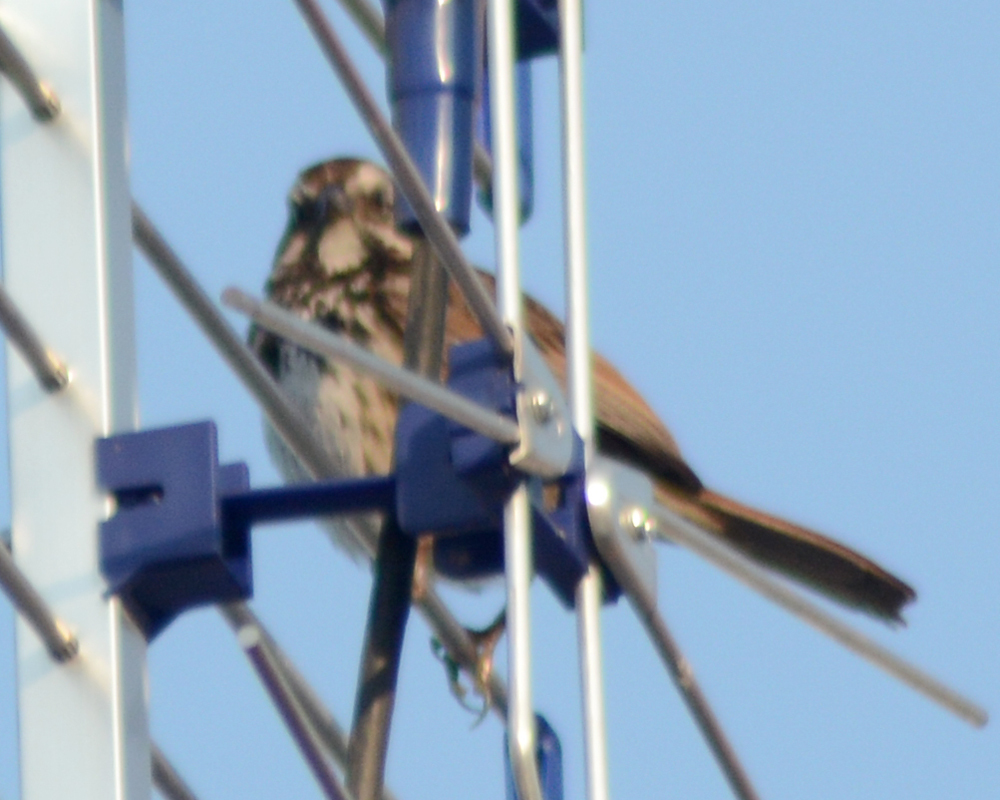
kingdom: Animalia
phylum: Chordata
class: Aves
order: Passeriformes
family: Passerellidae
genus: Melospiza
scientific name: Melospiza melodia
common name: Song sparrow
